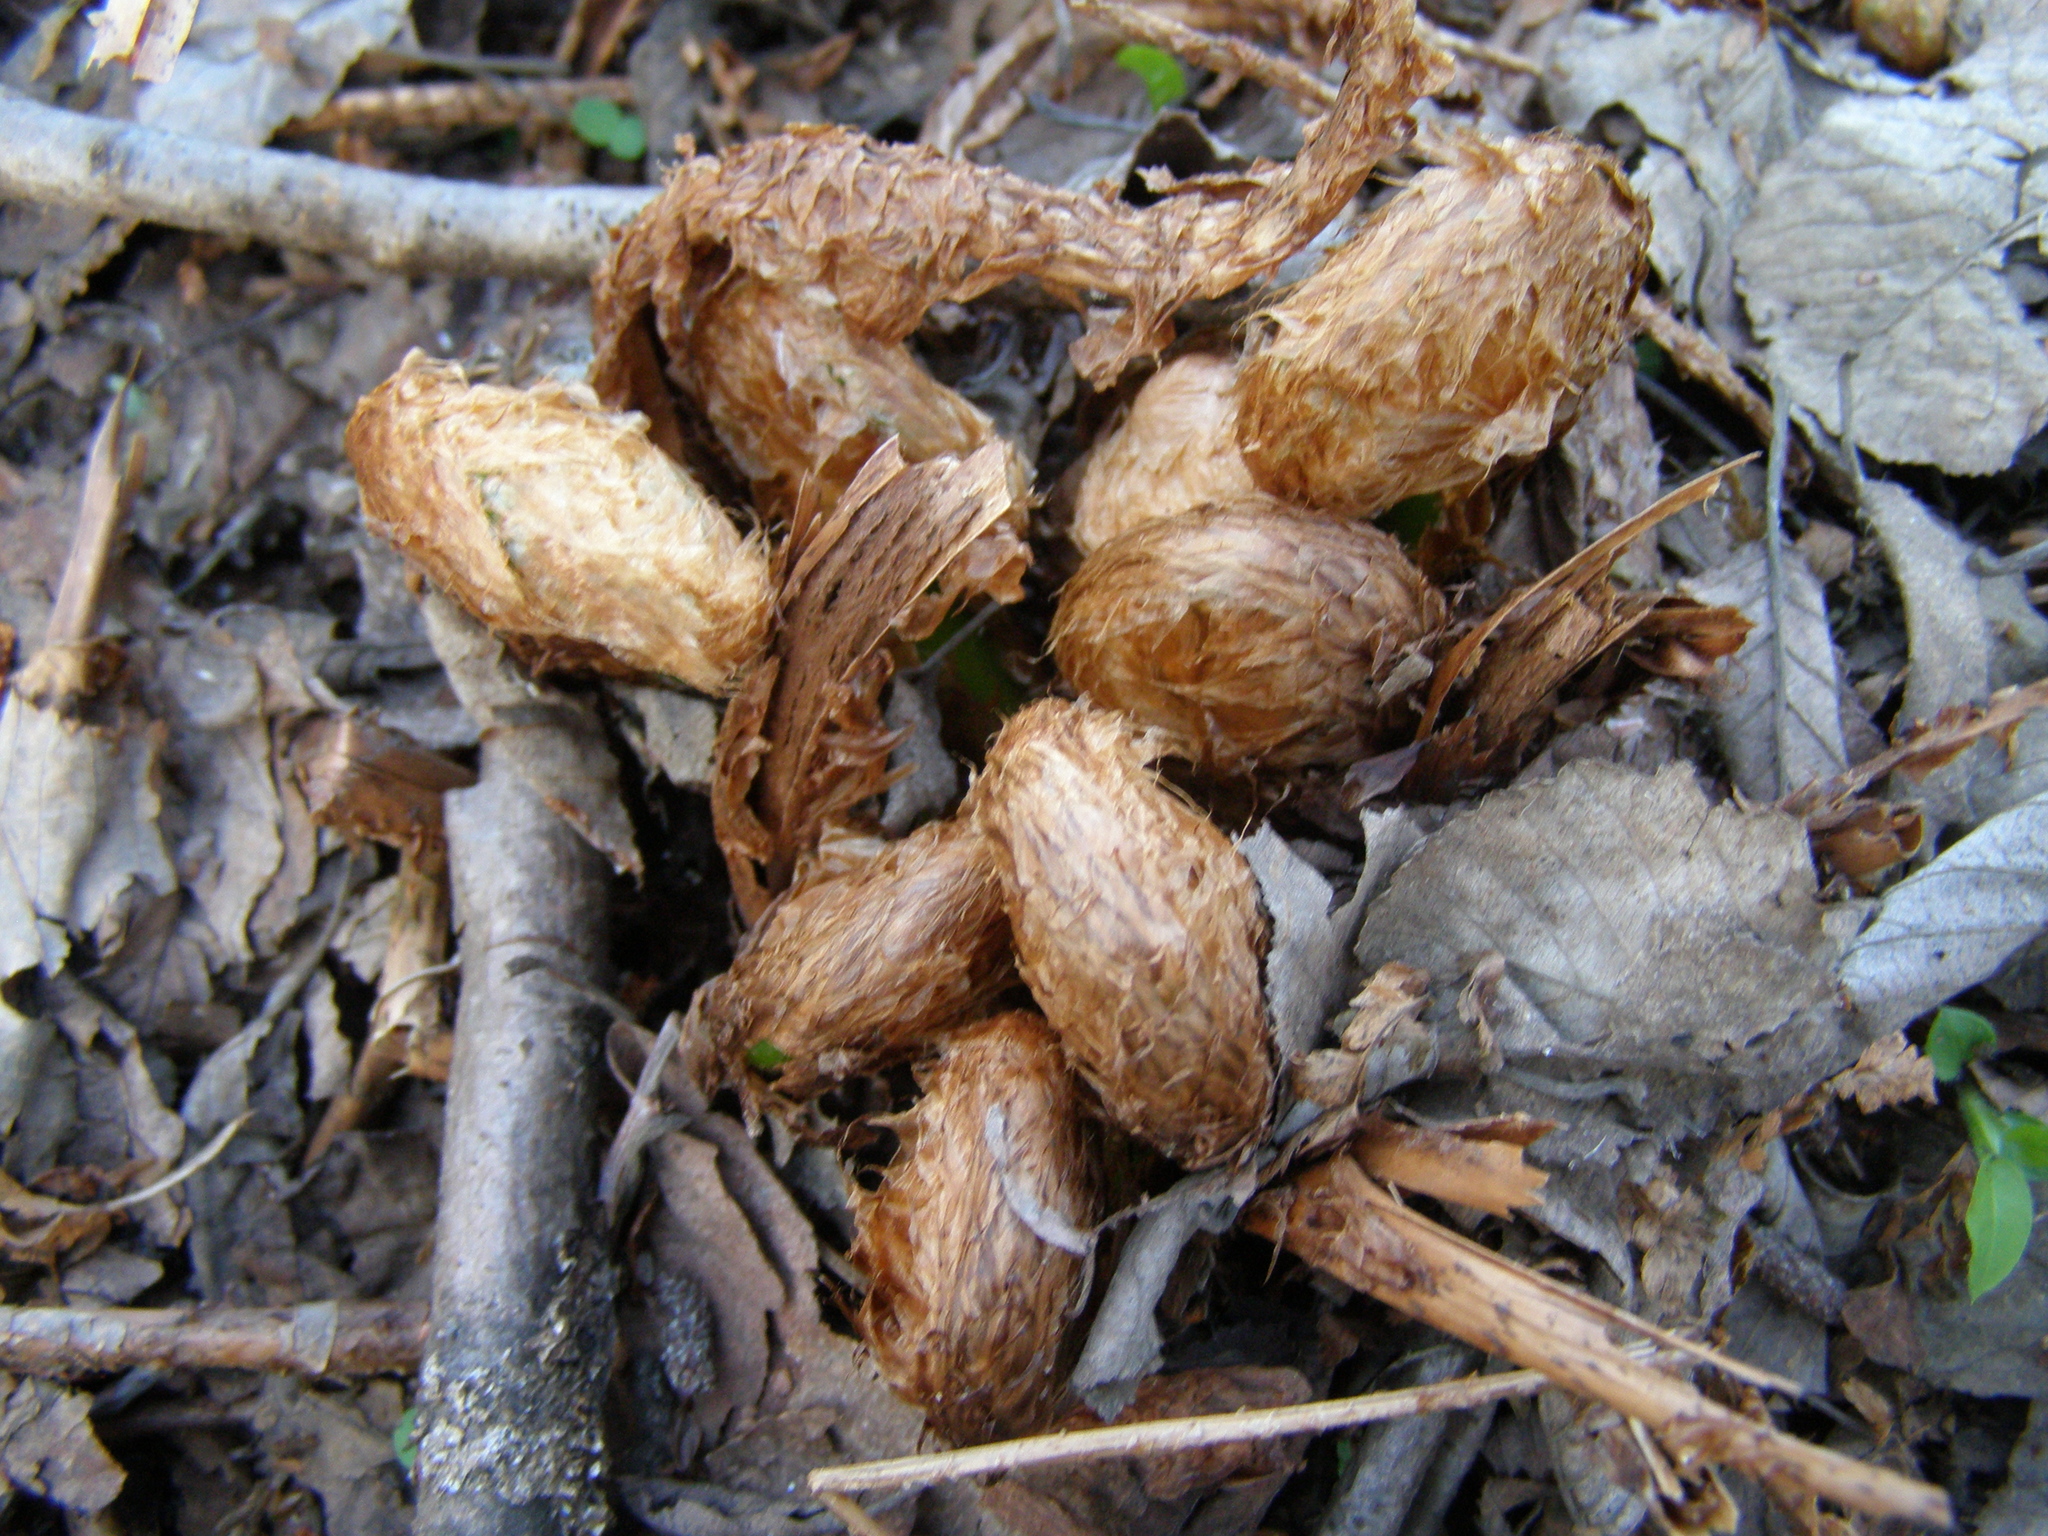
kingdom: Plantae
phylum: Tracheophyta
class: Polypodiopsida
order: Polypodiales
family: Dryopteridaceae
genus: Dryopteris
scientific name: Dryopteris filix-mas
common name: Male fern
